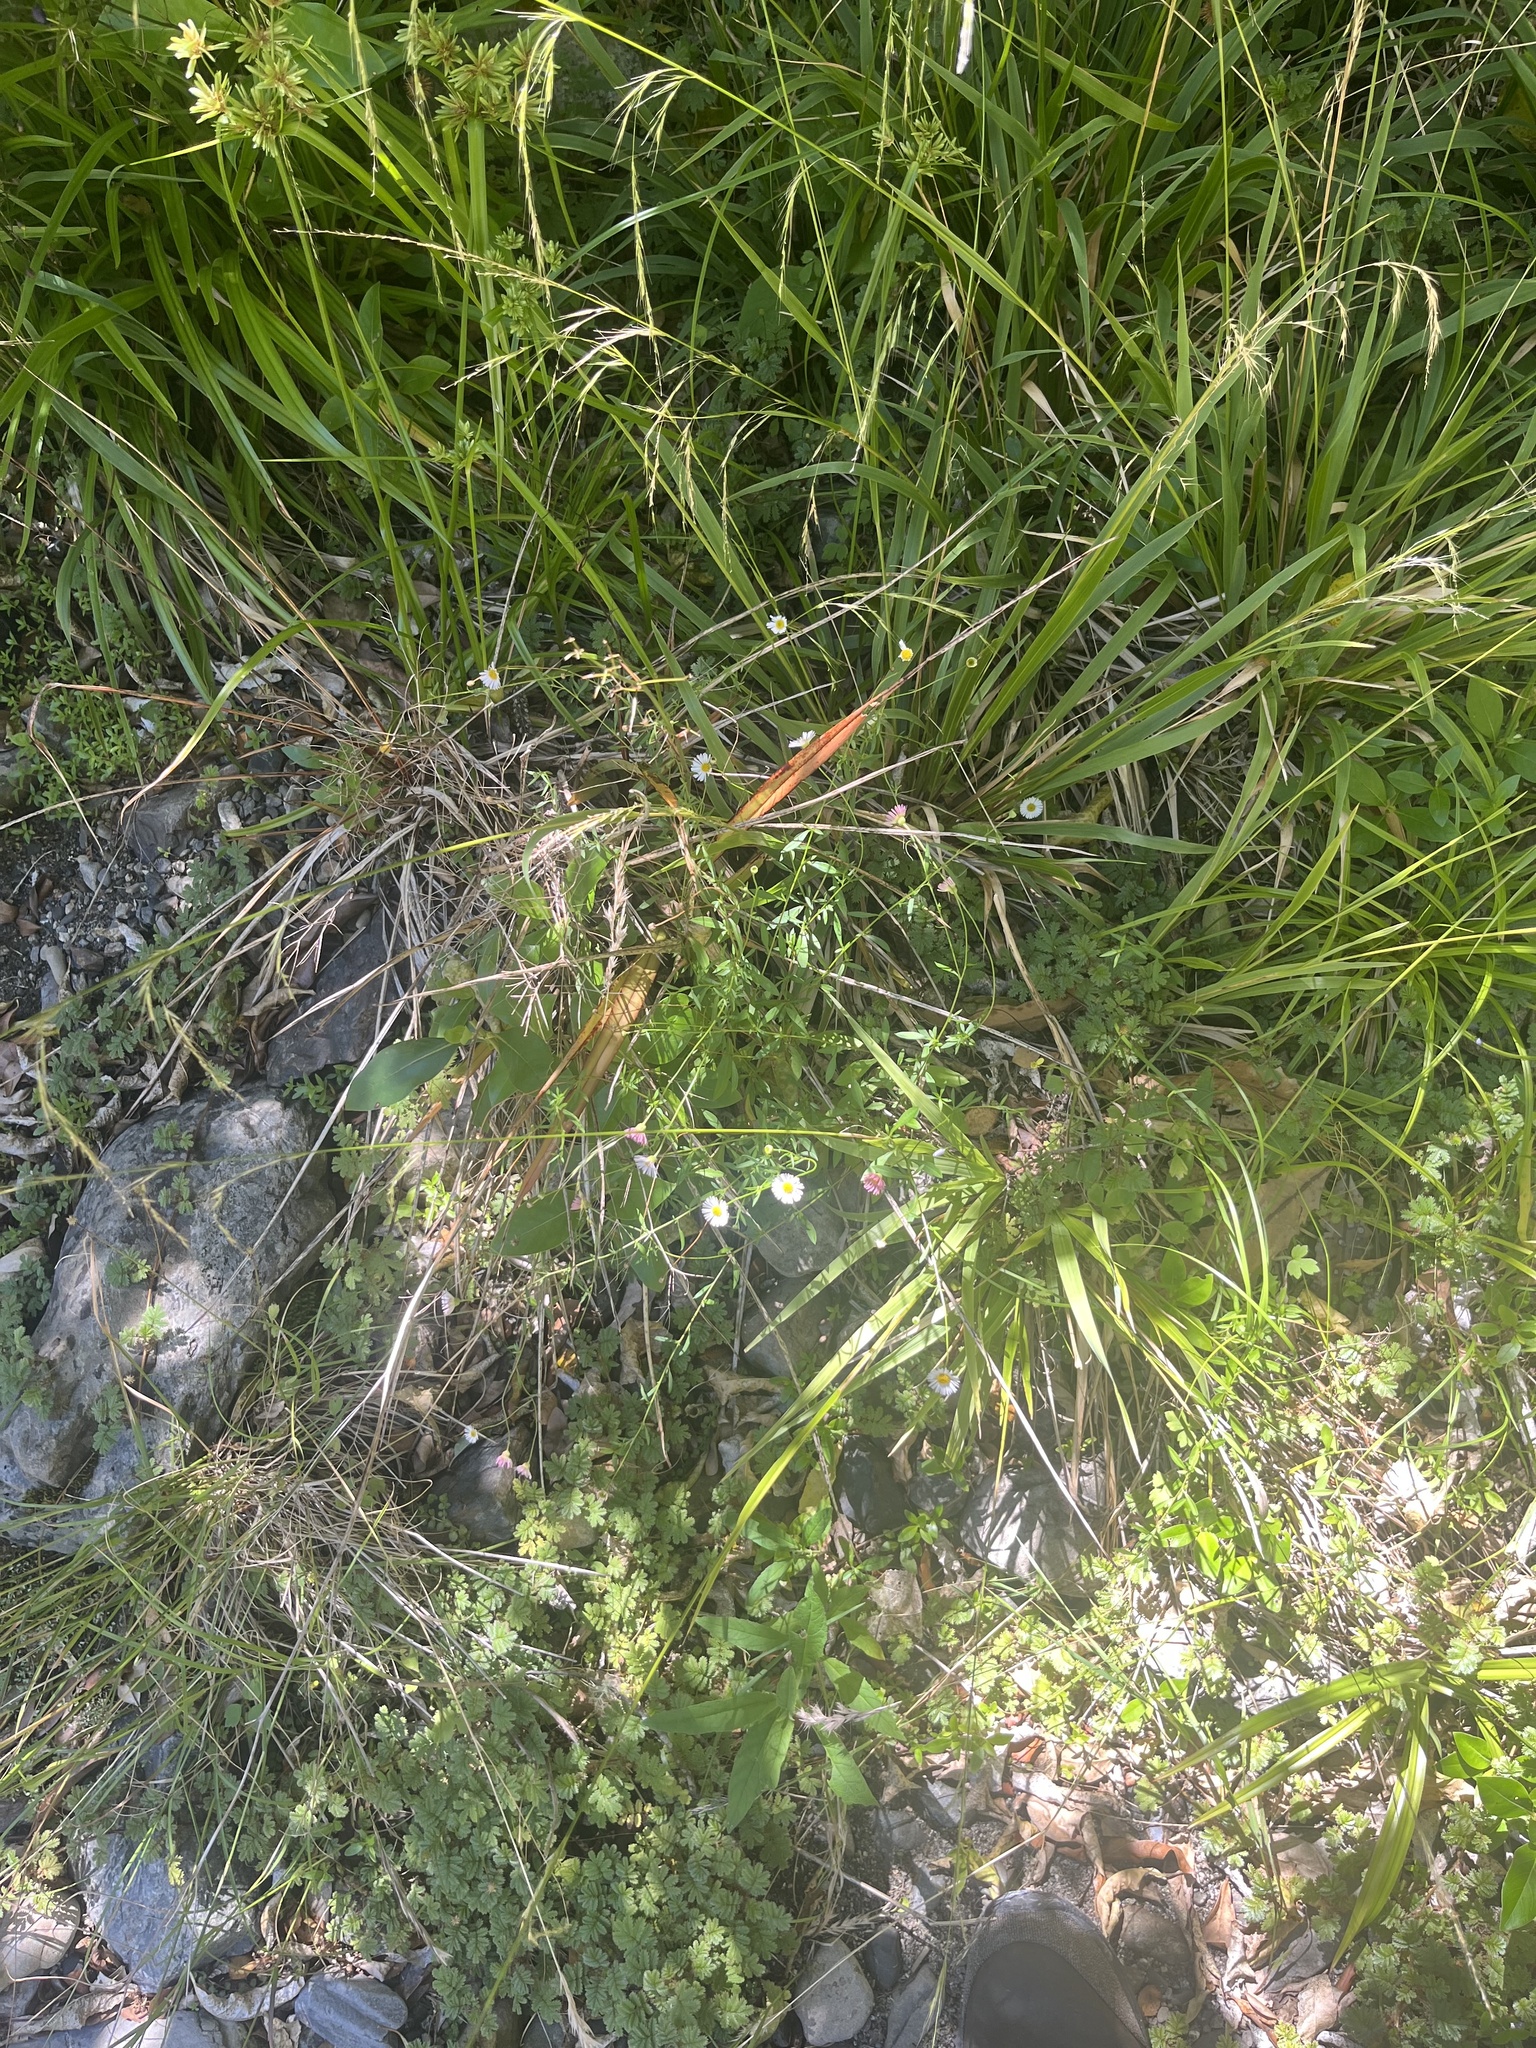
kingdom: Plantae
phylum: Tracheophyta
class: Magnoliopsida
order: Asterales
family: Asteraceae
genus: Erigeron
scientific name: Erigeron karvinskianus
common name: Mexican fleabane
